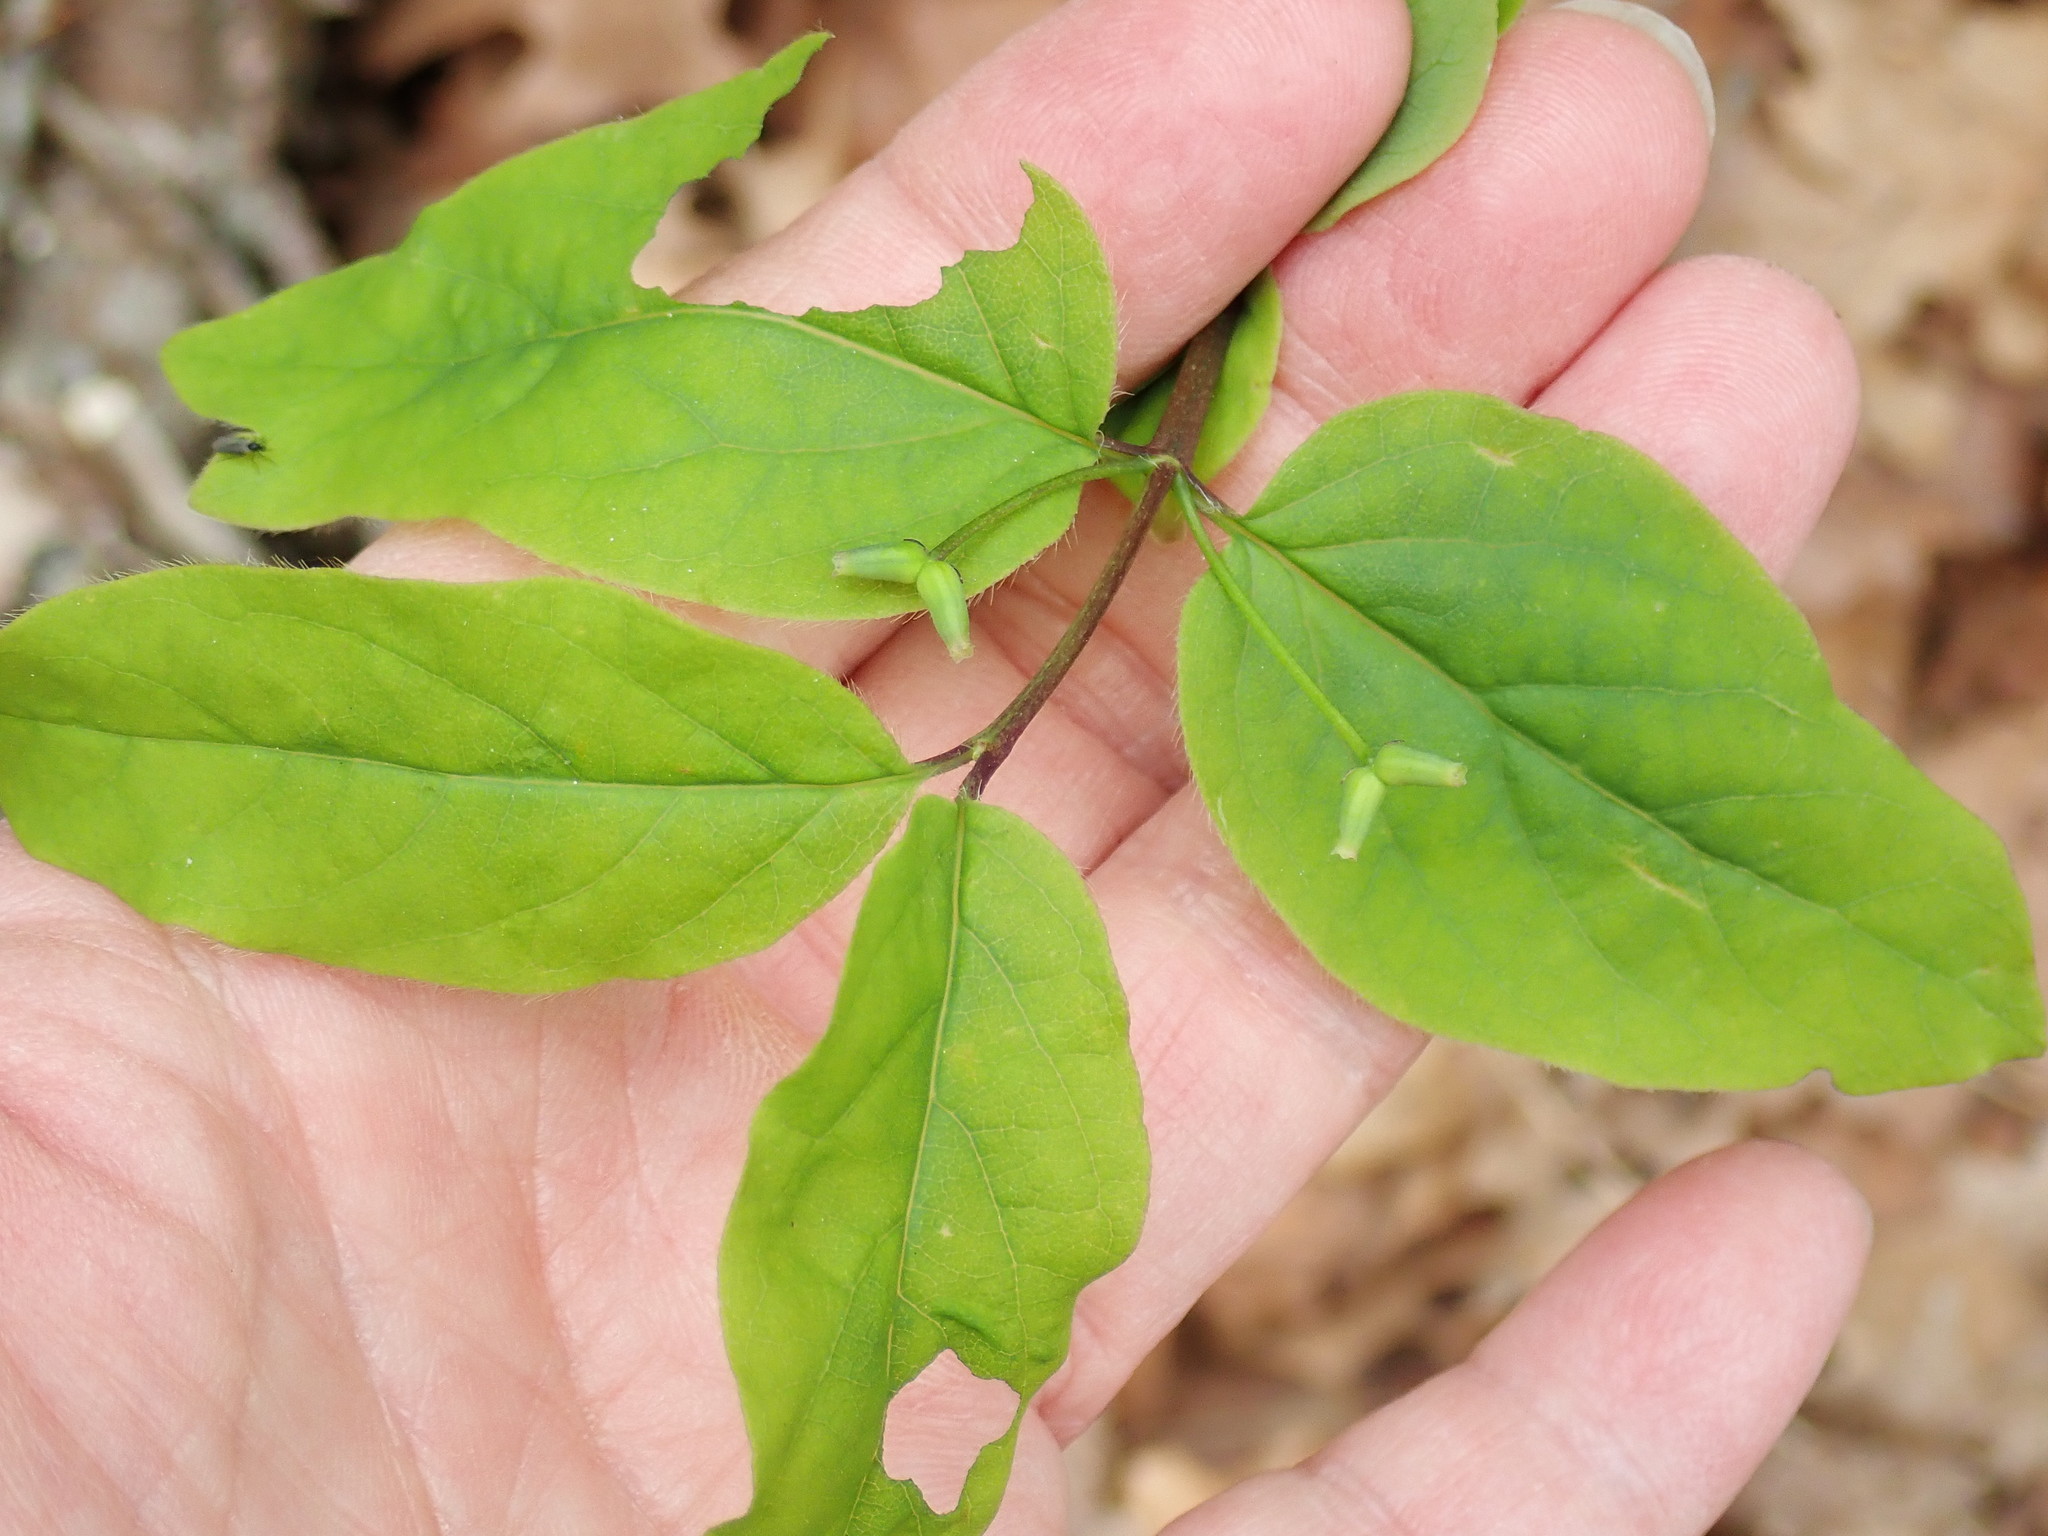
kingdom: Plantae
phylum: Tracheophyta
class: Magnoliopsida
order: Dipsacales
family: Caprifoliaceae
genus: Lonicera
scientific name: Lonicera canadensis
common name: American fly-honeysuckle
